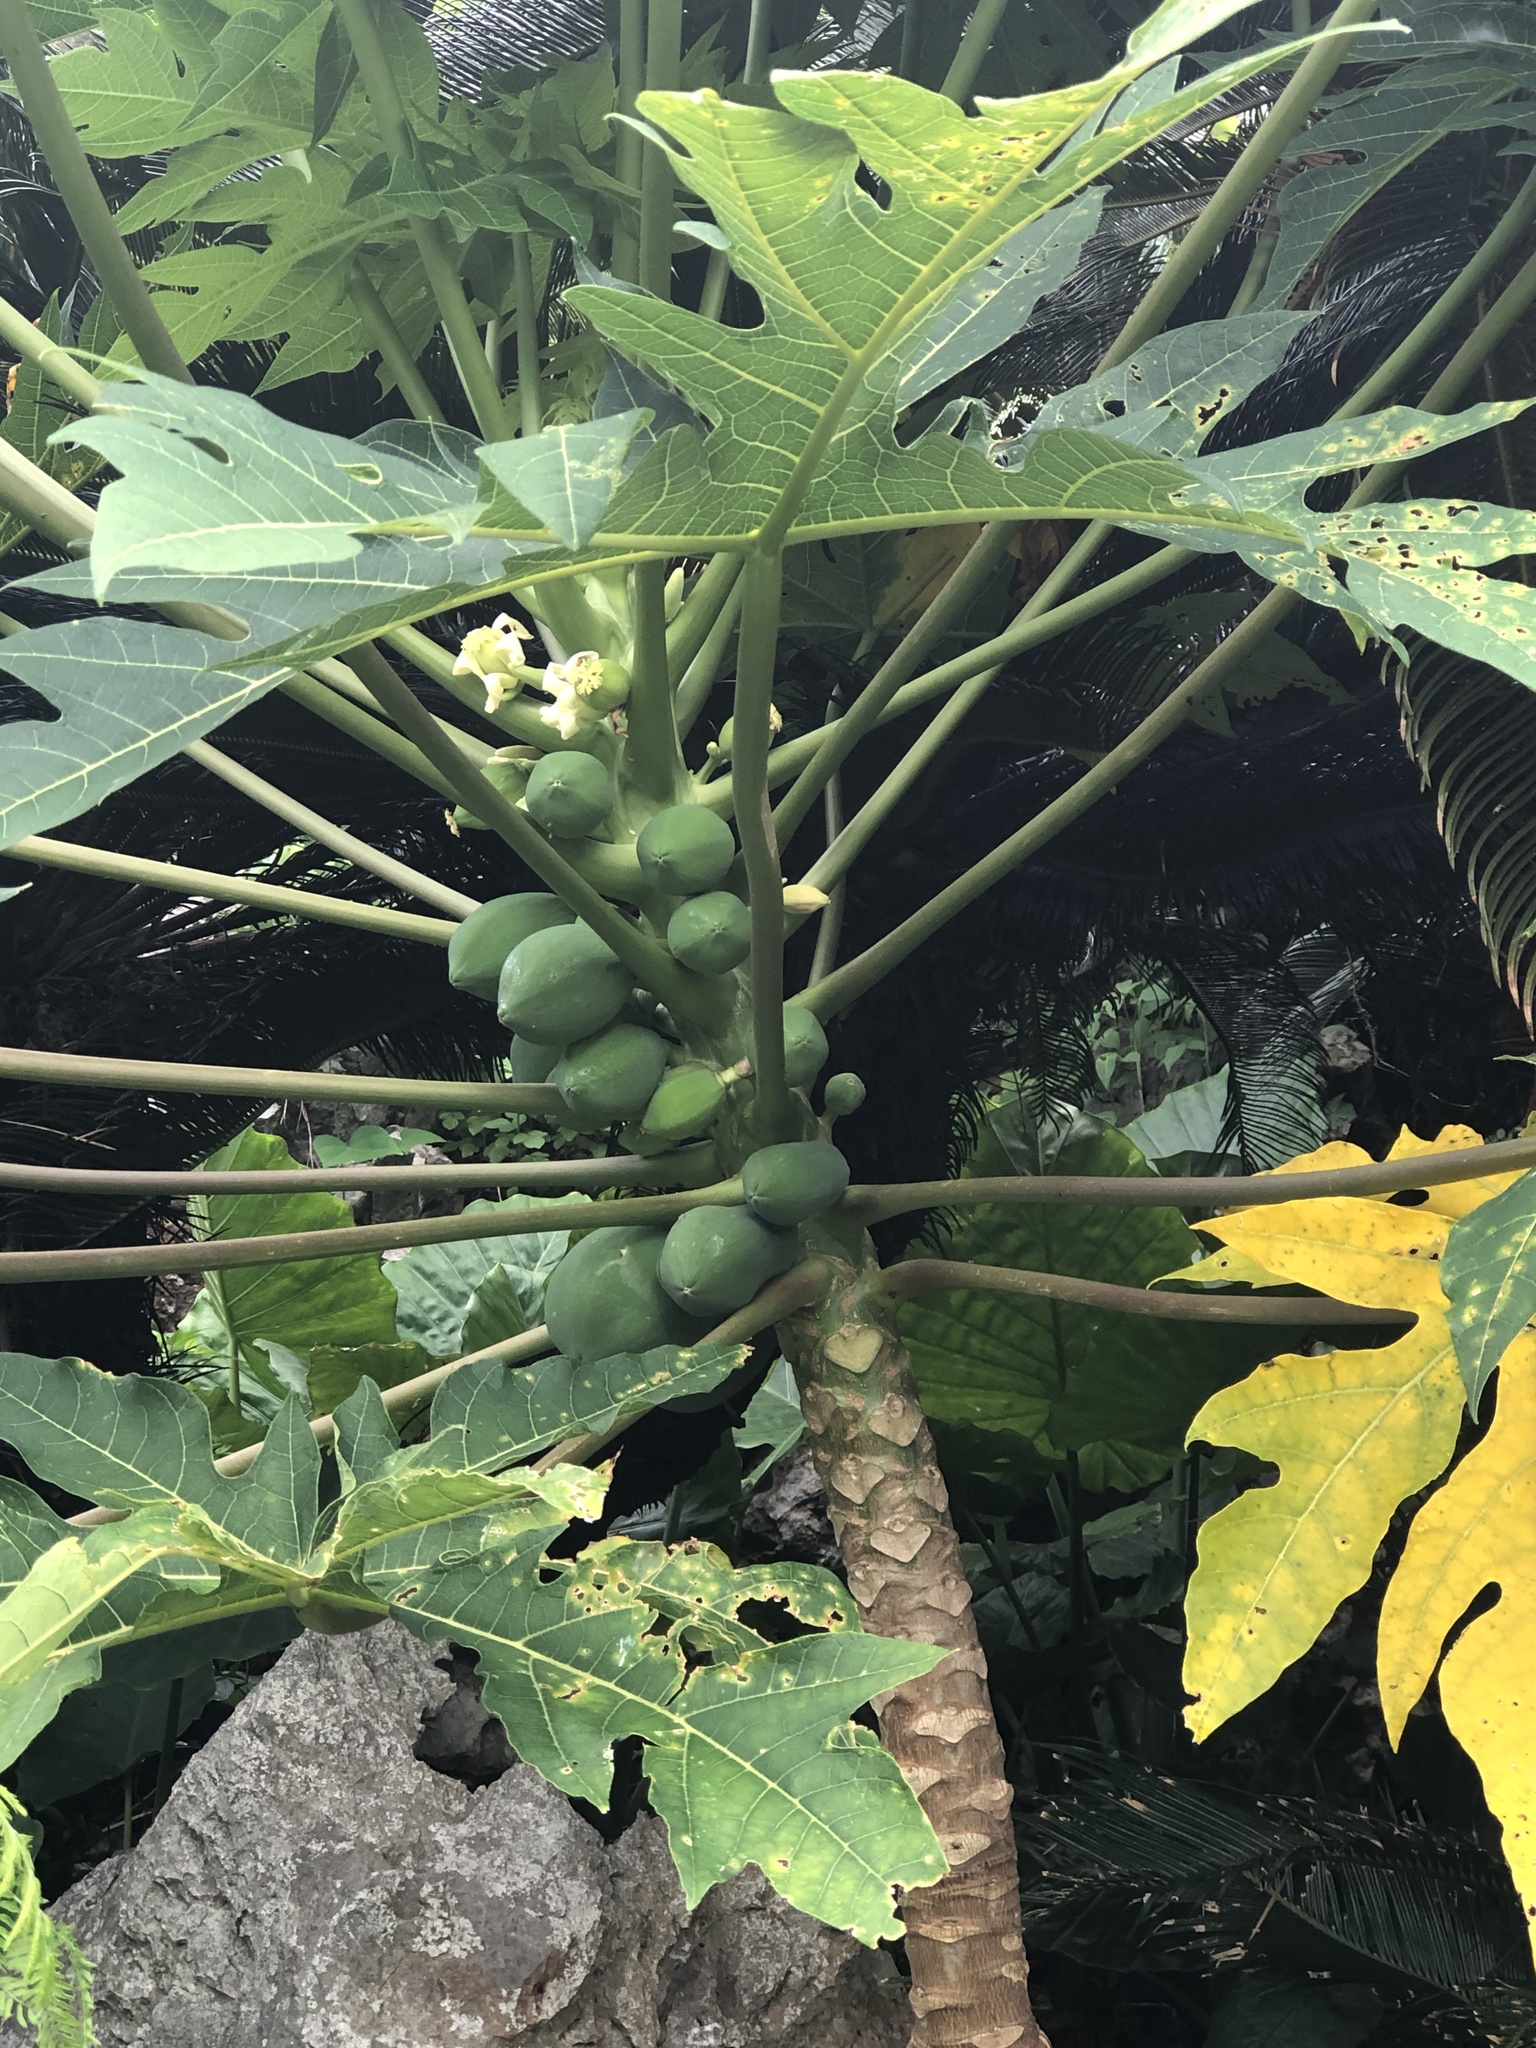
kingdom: Plantae
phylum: Tracheophyta
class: Magnoliopsida
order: Brassicales
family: Caricaceae
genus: Carica
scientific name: Carica papaya
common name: Papaya
